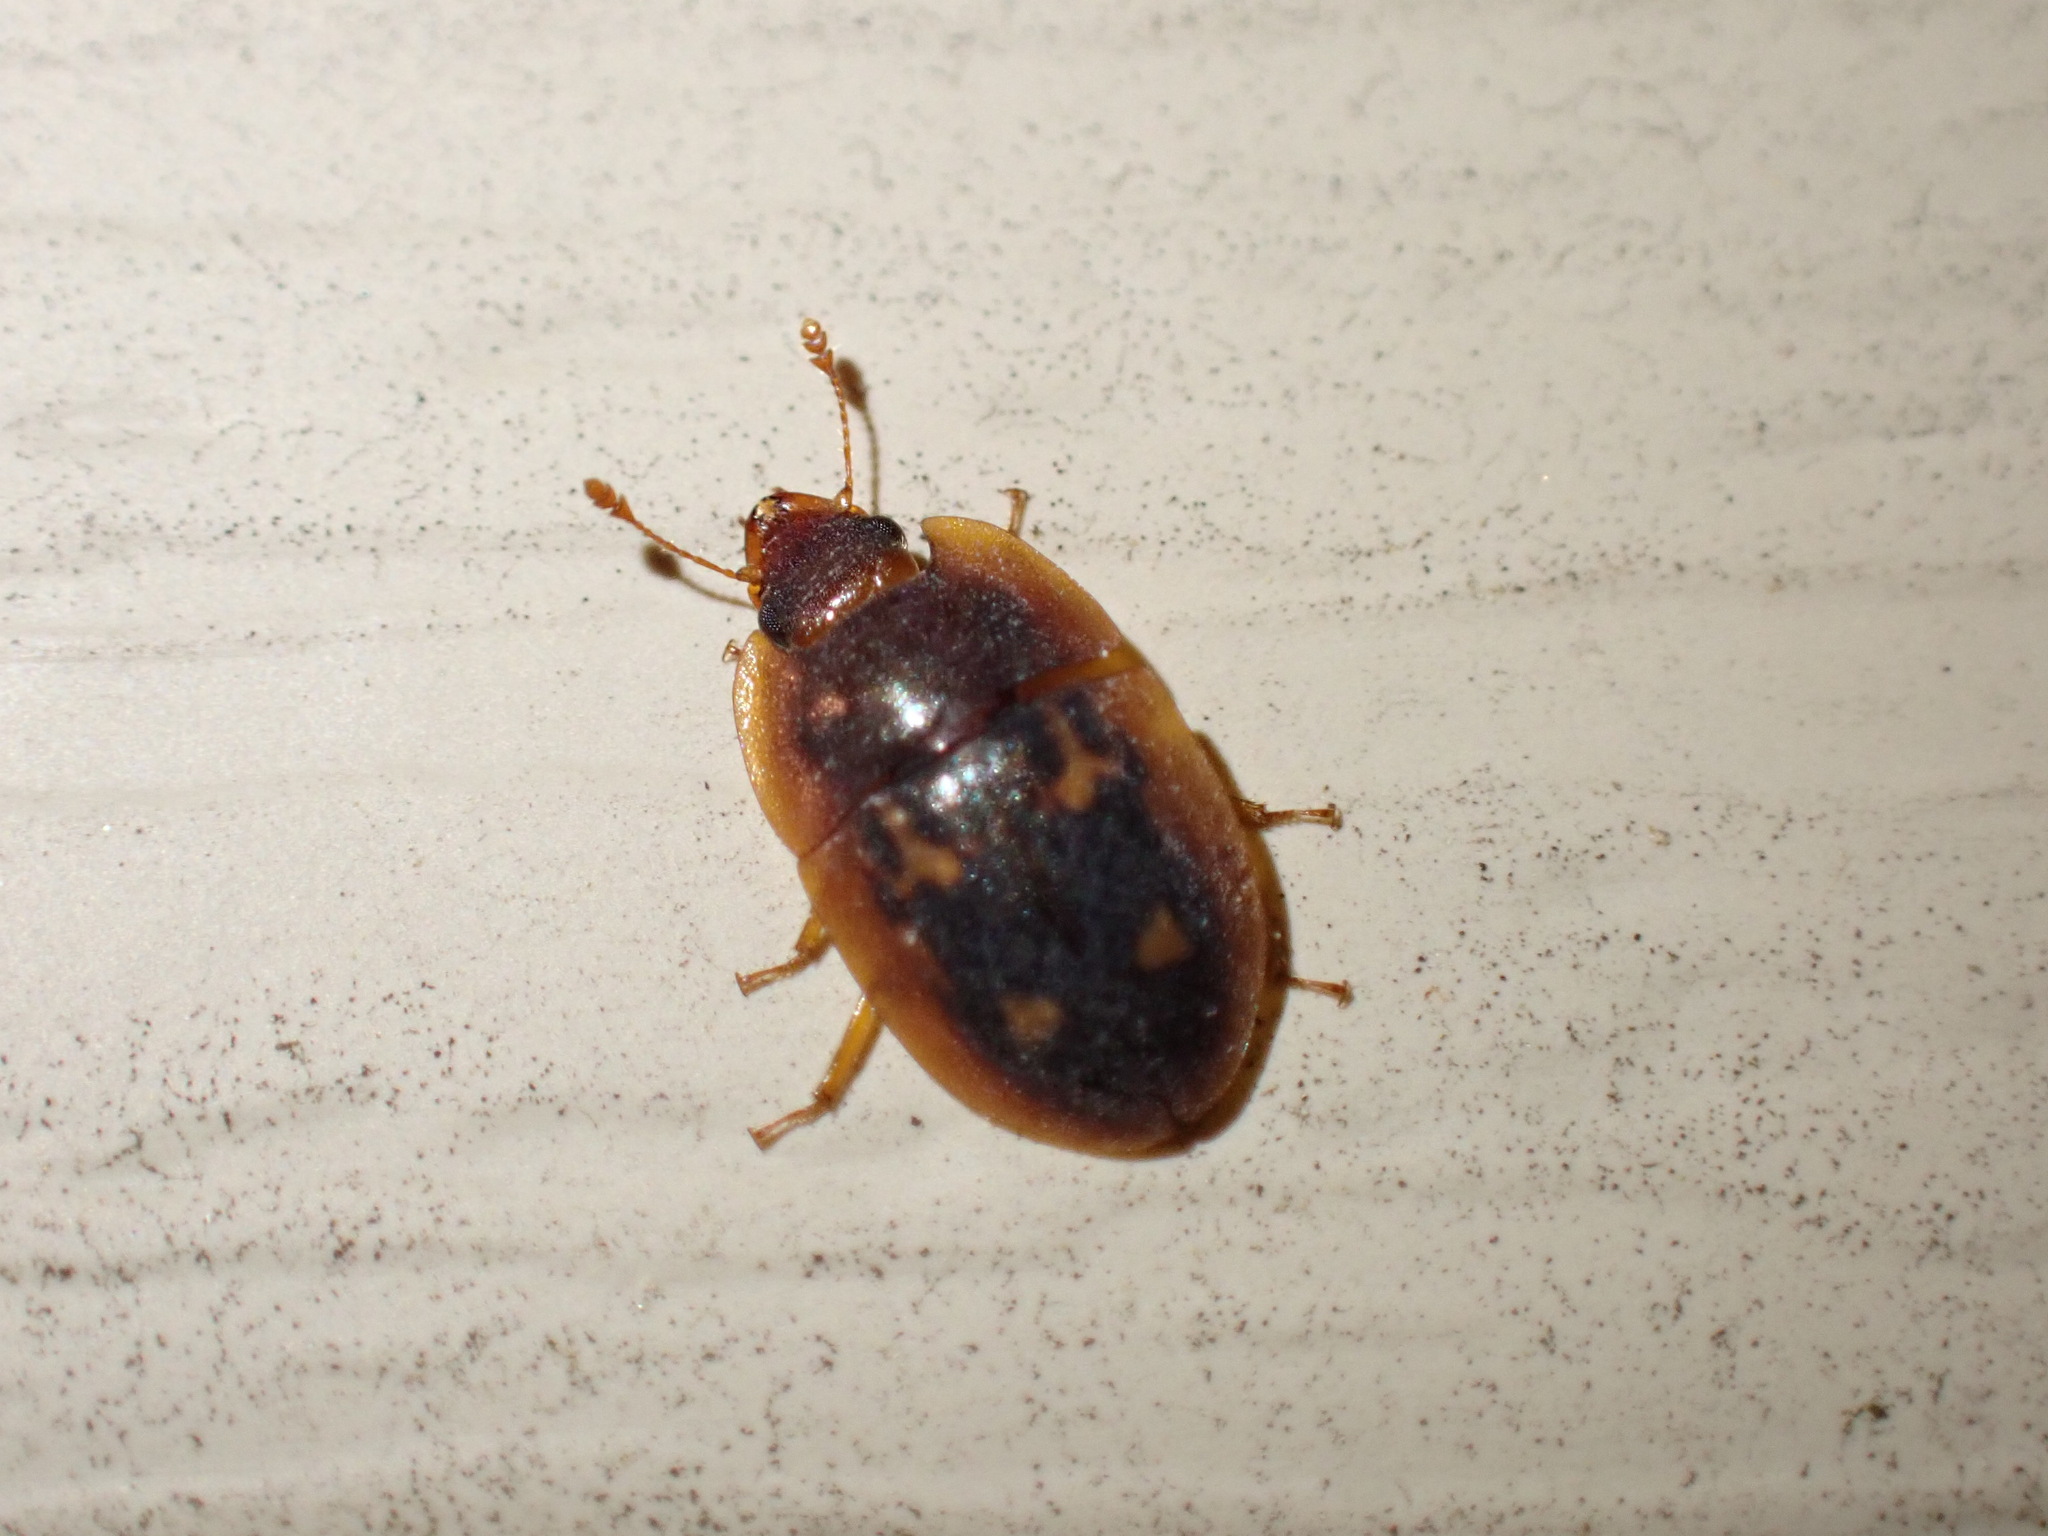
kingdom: Animalia
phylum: Arthropoda
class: Insecta
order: Coleoptera
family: Nitidulidae
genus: Prometopia
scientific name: Prometopia sexmaculata
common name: Six-spotted sap-feeding beetle
